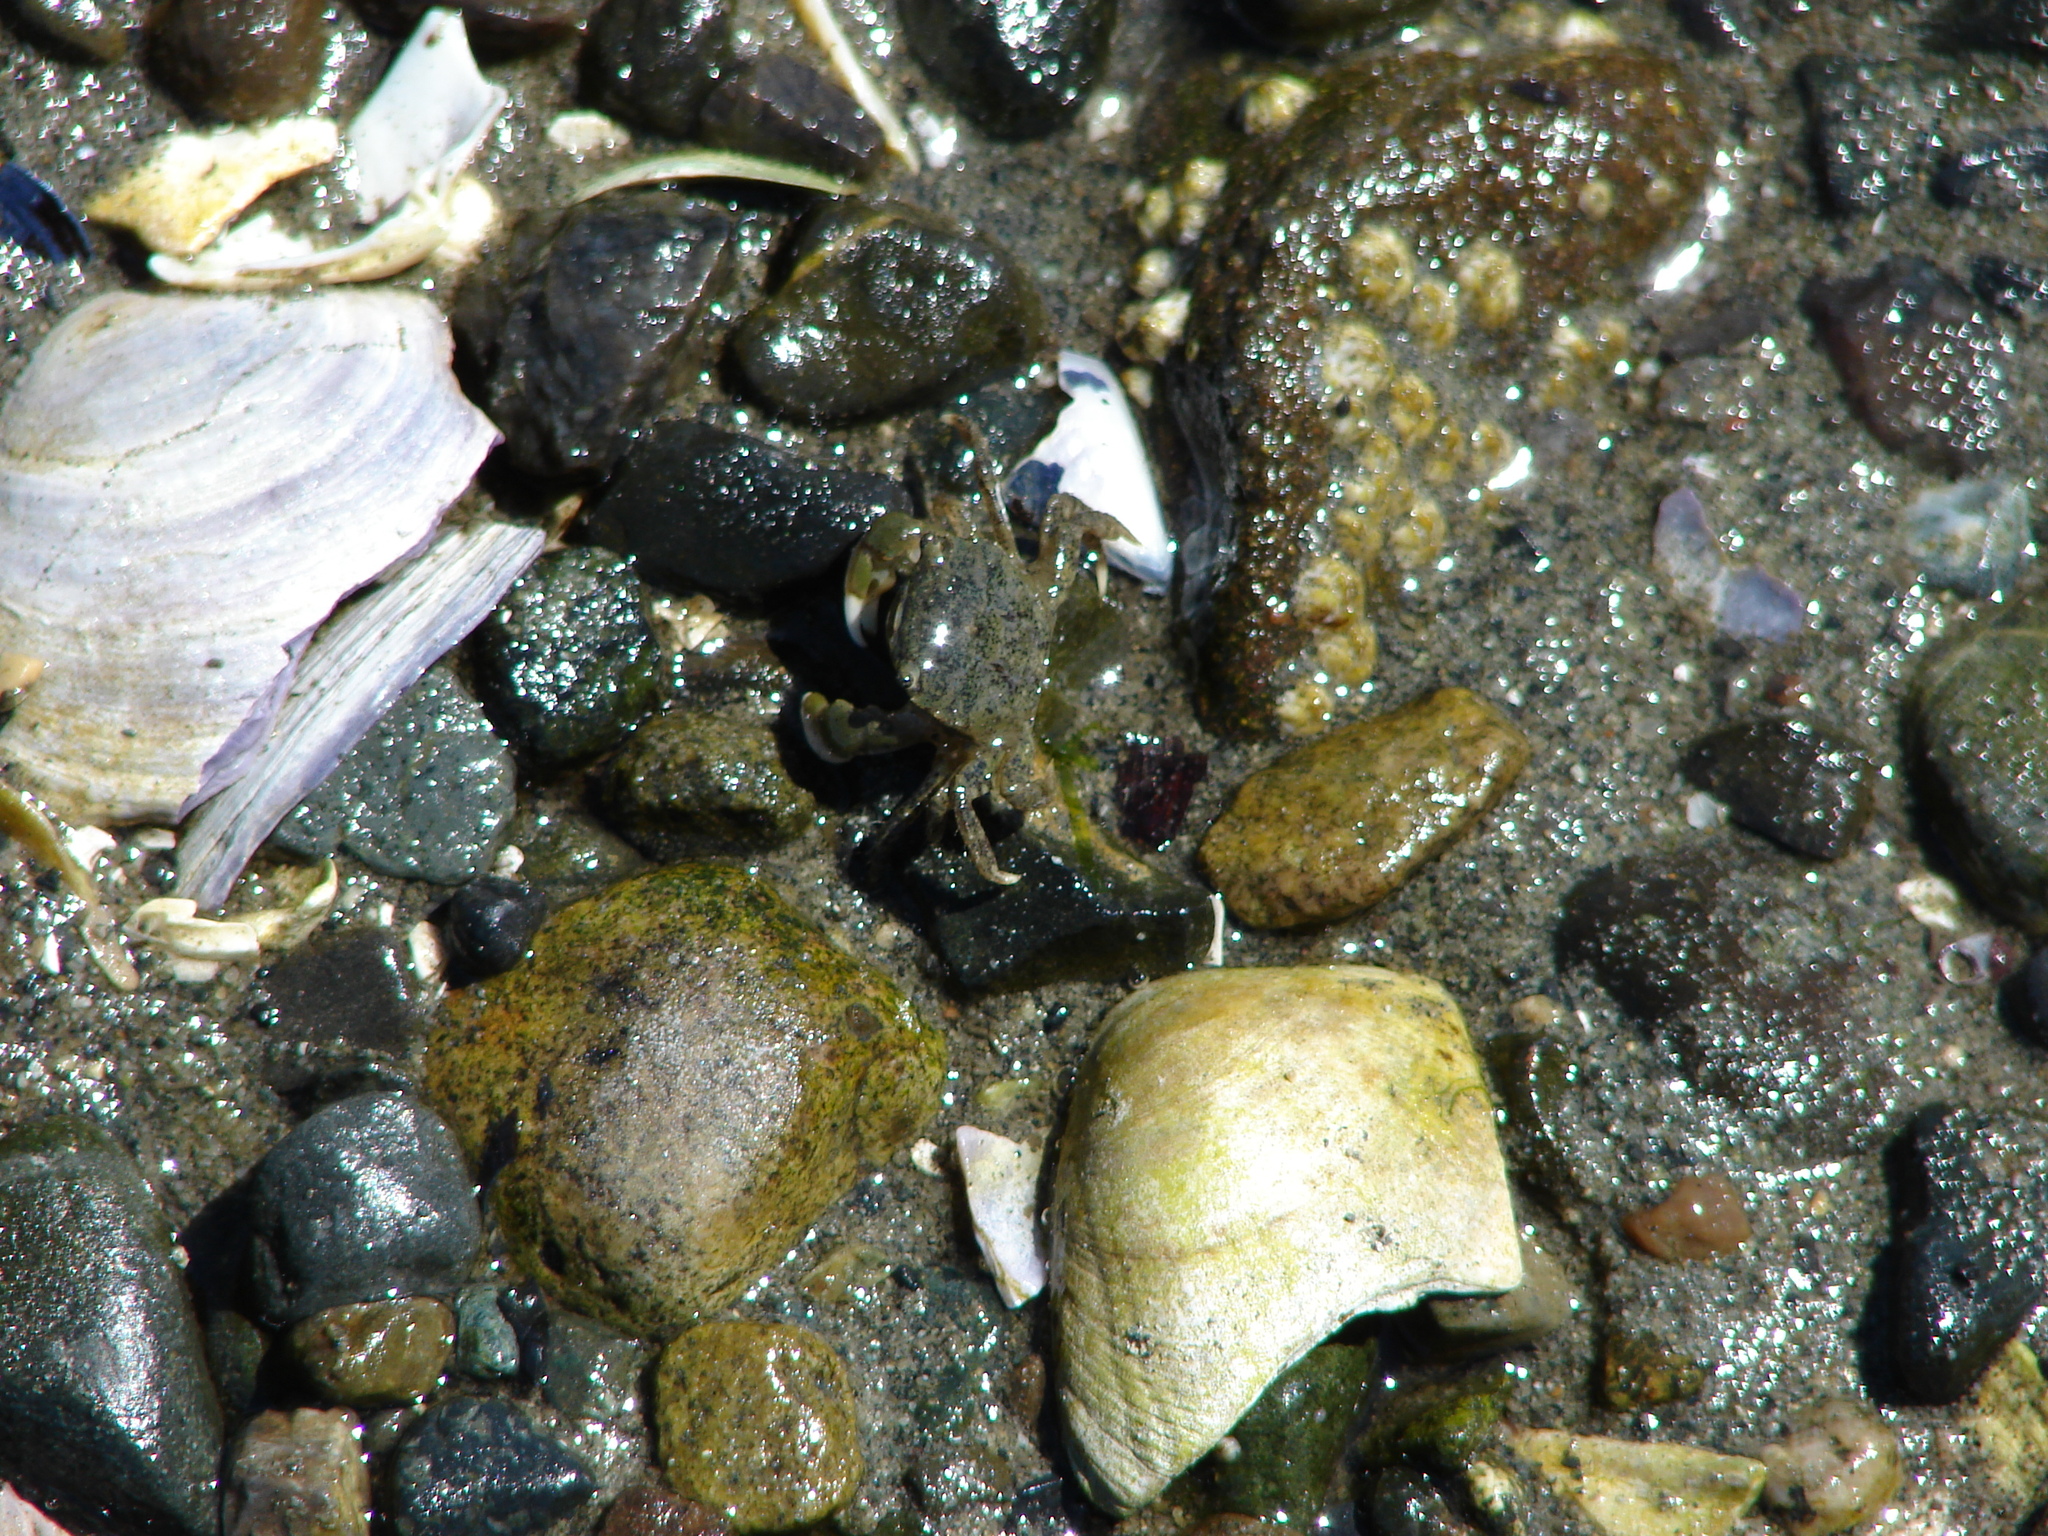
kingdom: Animalia
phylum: Arthropoda
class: Malacostraca
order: Decapoda
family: Varunidae
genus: Hemigrapsus
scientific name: Hemigrapsus oregonensis
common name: Yellow shore crab
